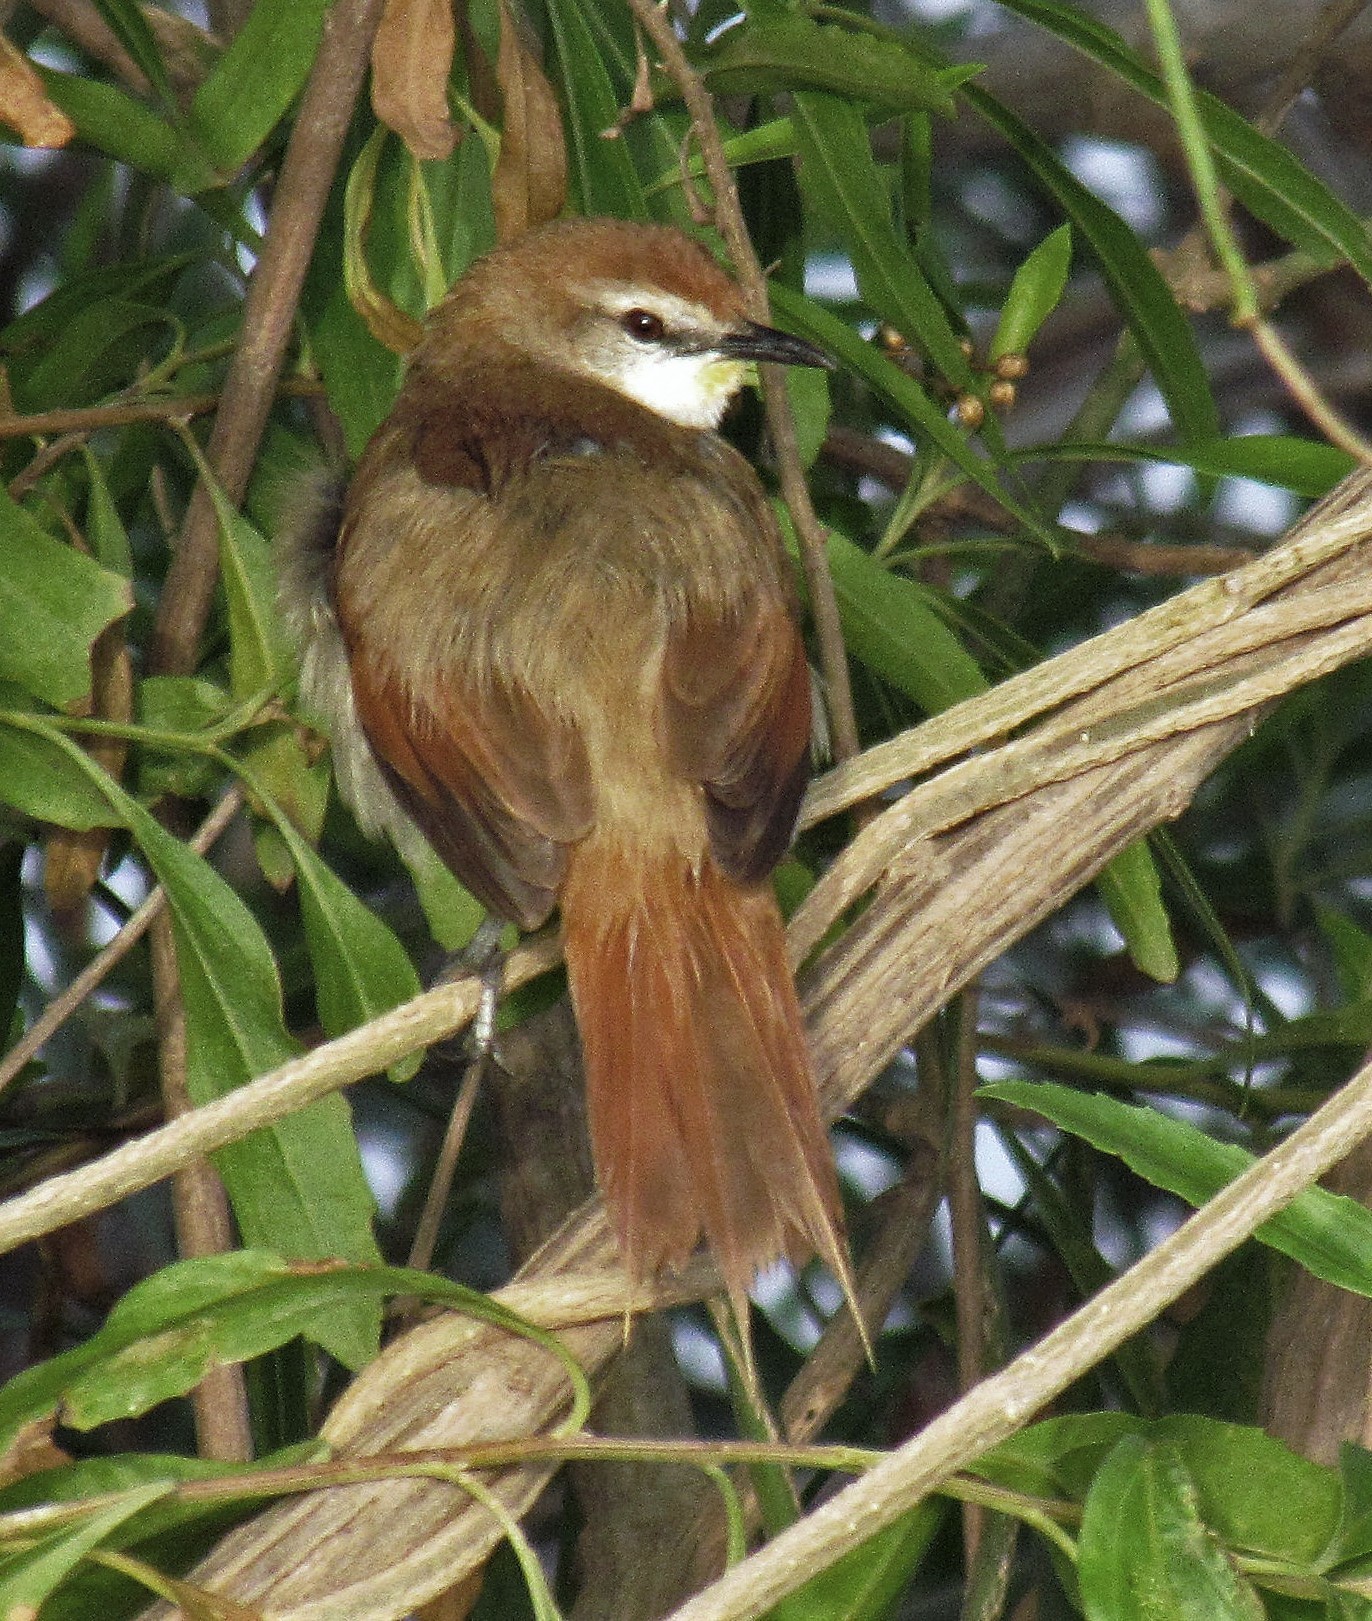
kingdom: Animalia
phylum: Chordata
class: Aves
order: Passeriformes
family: Furnariidae
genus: Certhiaxis
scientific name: Certhiaxis cinnamomeus
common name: Yellow-chinned spinetail
